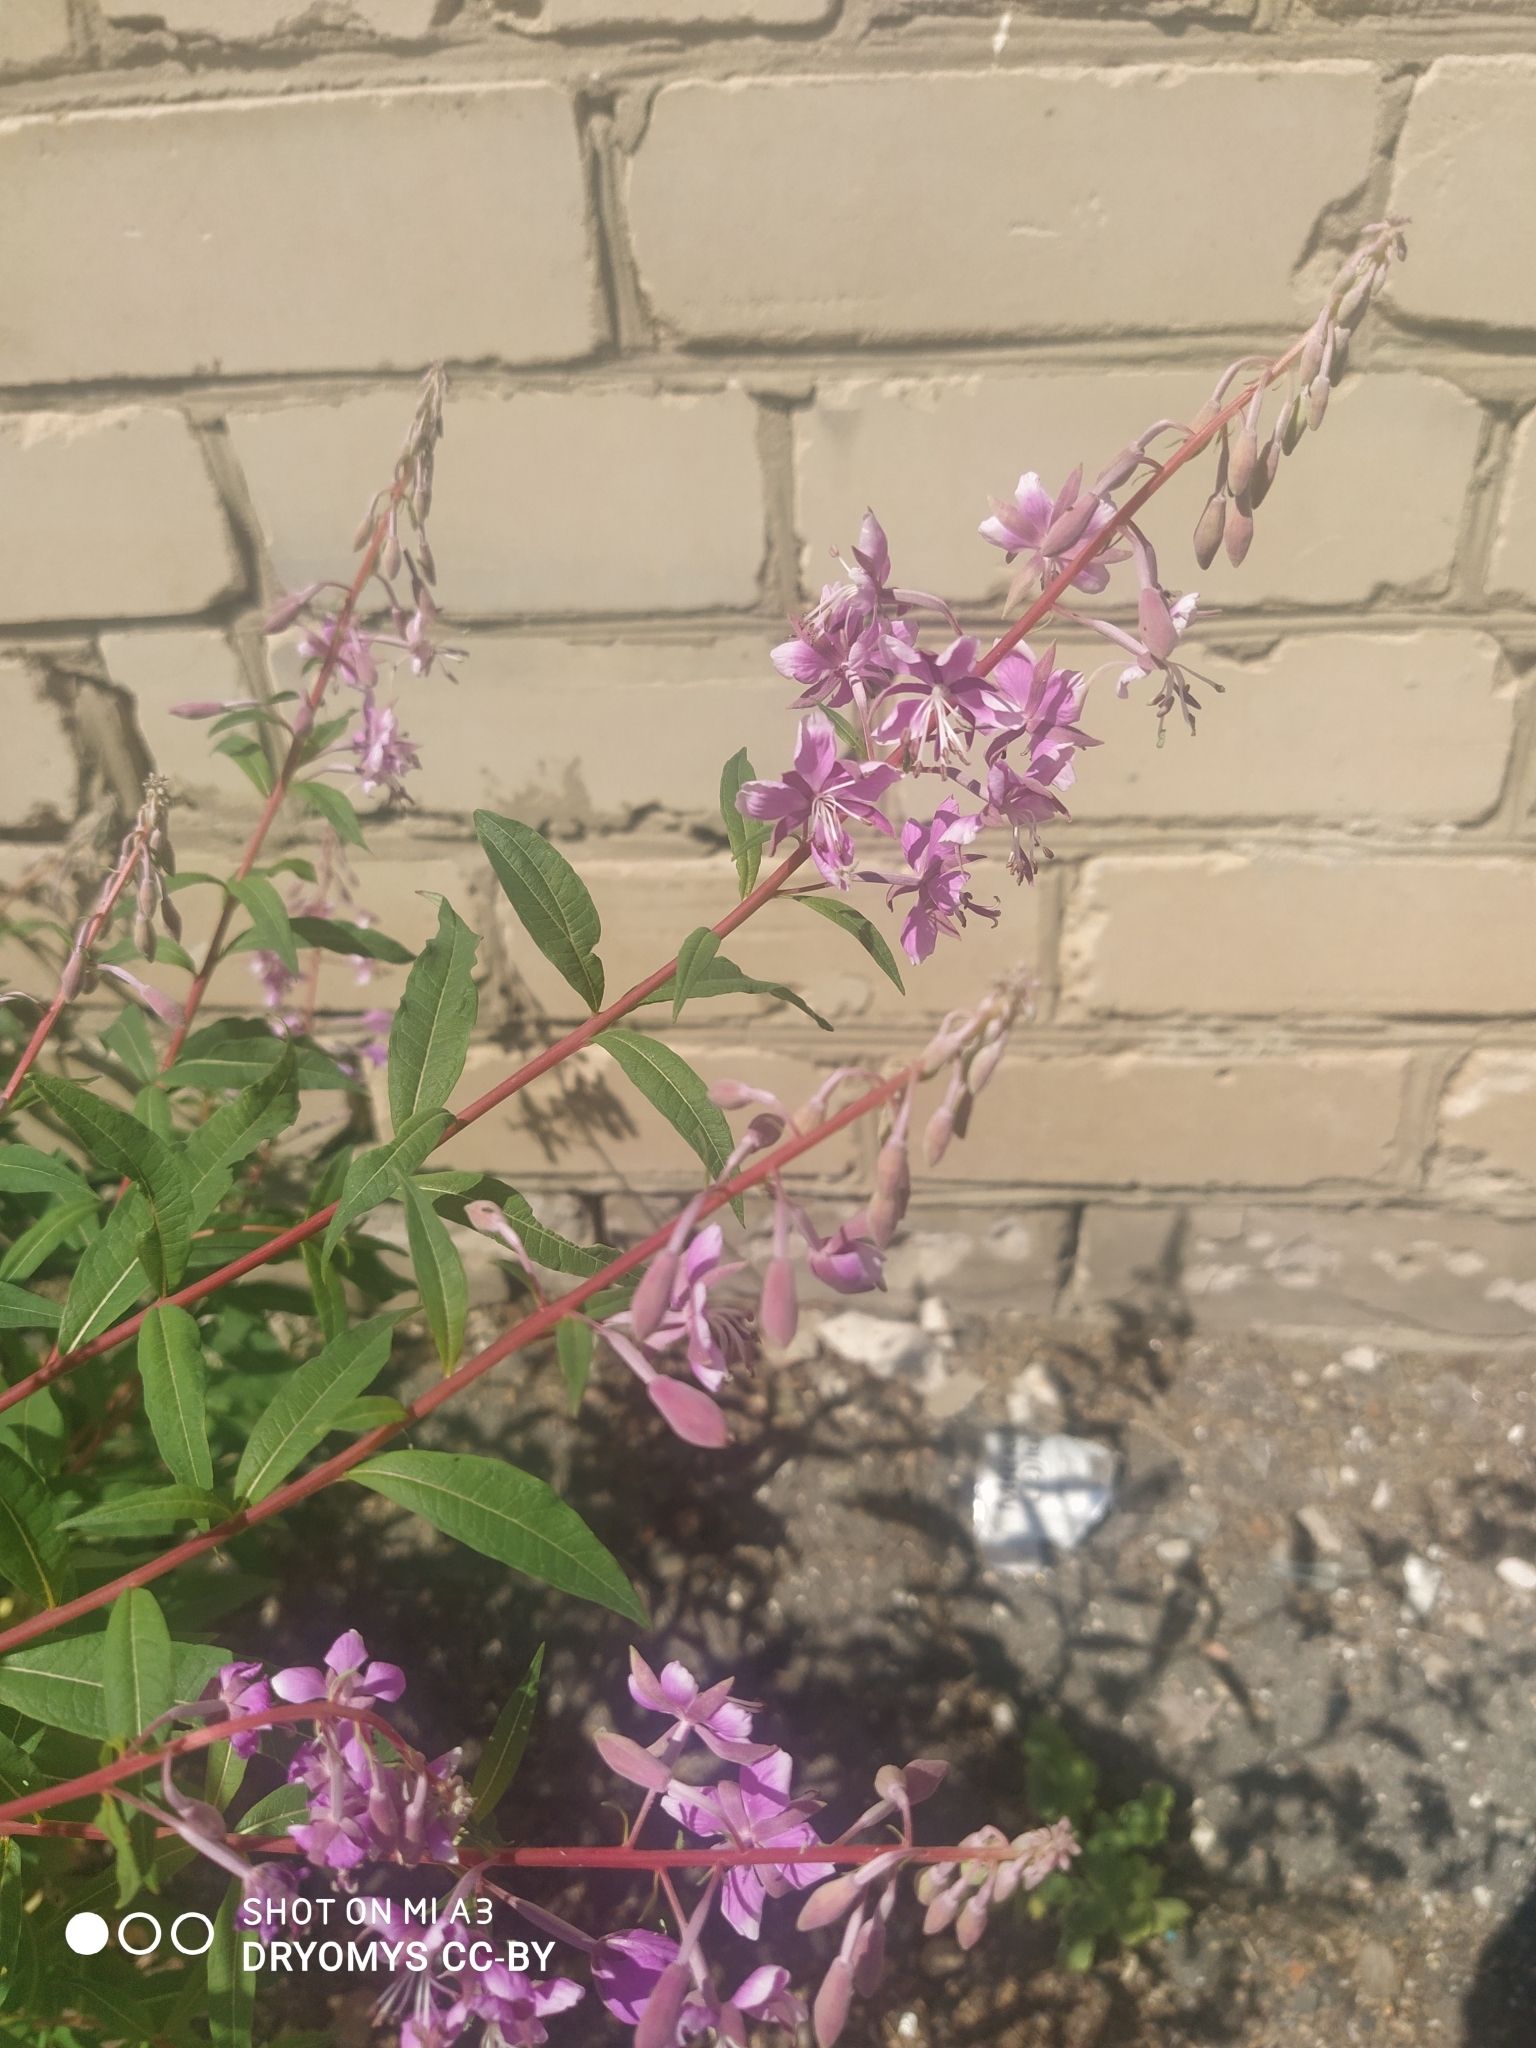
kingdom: Plantae
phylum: Tracheophyta
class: Magnoliopsida
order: Myrtales
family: Onagraceae
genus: Chamaenerion
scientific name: Chamaenerion angustifolium
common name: Fireweed
